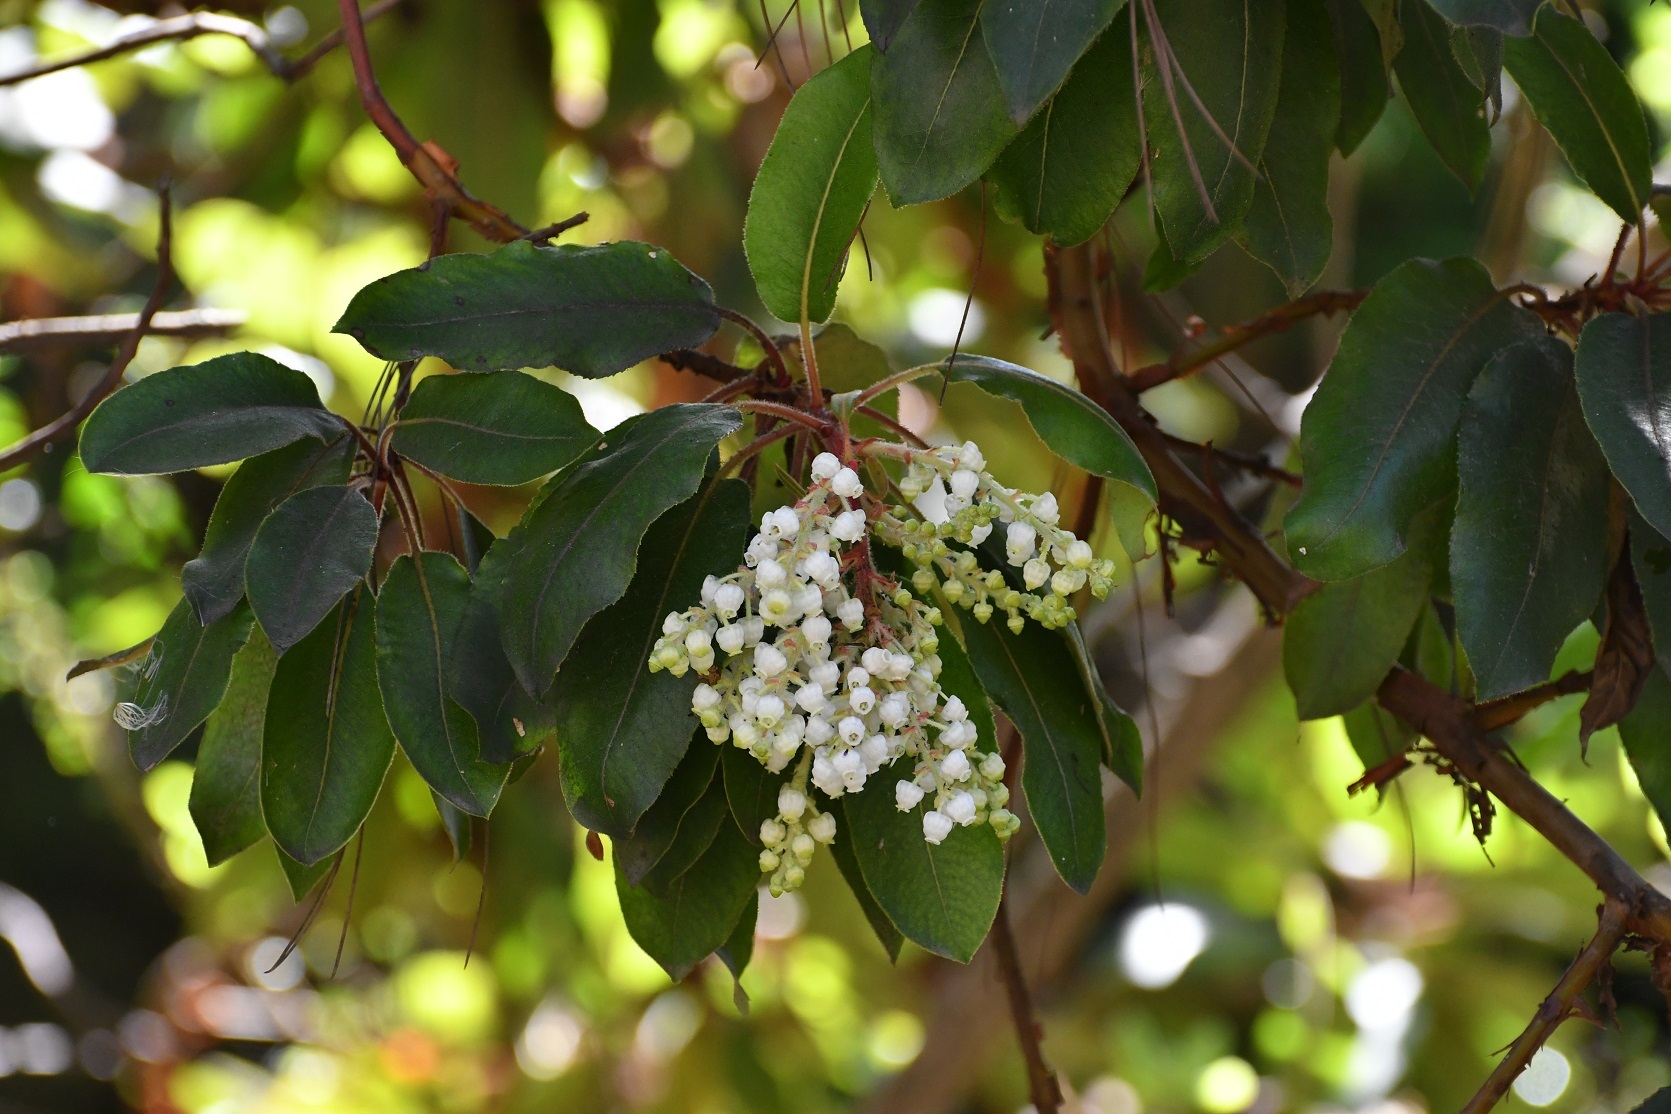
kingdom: Plantae
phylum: Tracheophyta
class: Magnoliopsida
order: Ericales
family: Ericaceae
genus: Arbutus
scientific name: Arbutus xalapensis
